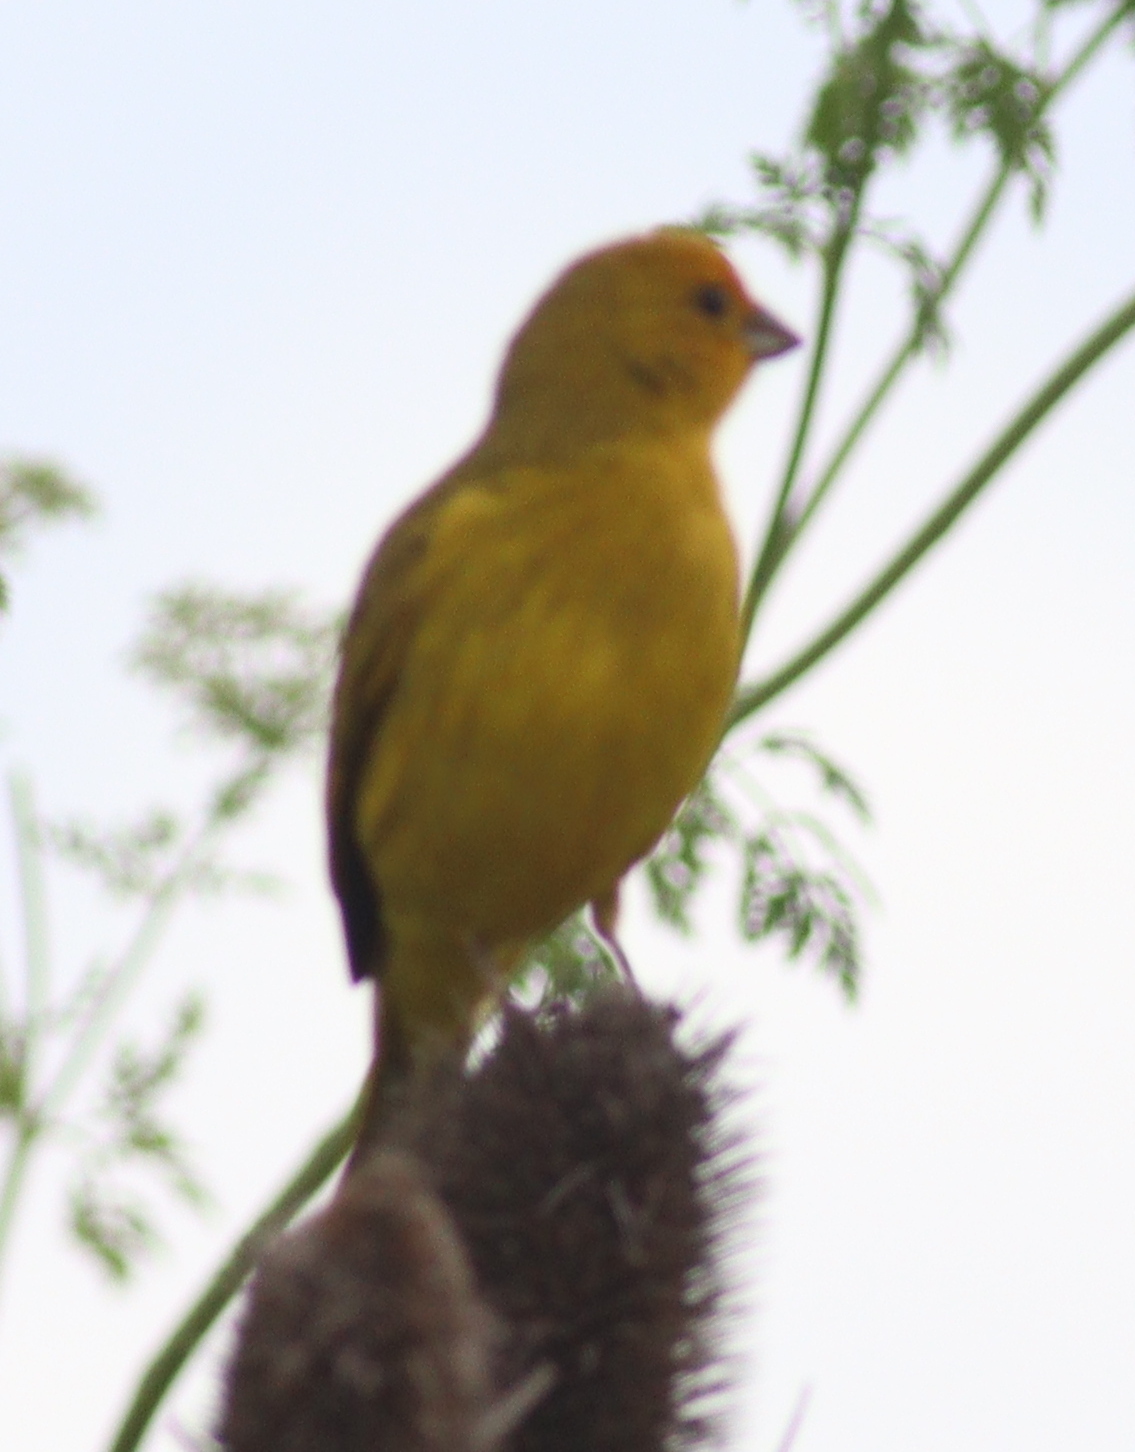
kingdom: Animalia
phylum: Chordata
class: Aves
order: Passeriformes
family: Thraupidae
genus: Sicalis
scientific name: Sicalis flaveola
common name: Saffron finch
